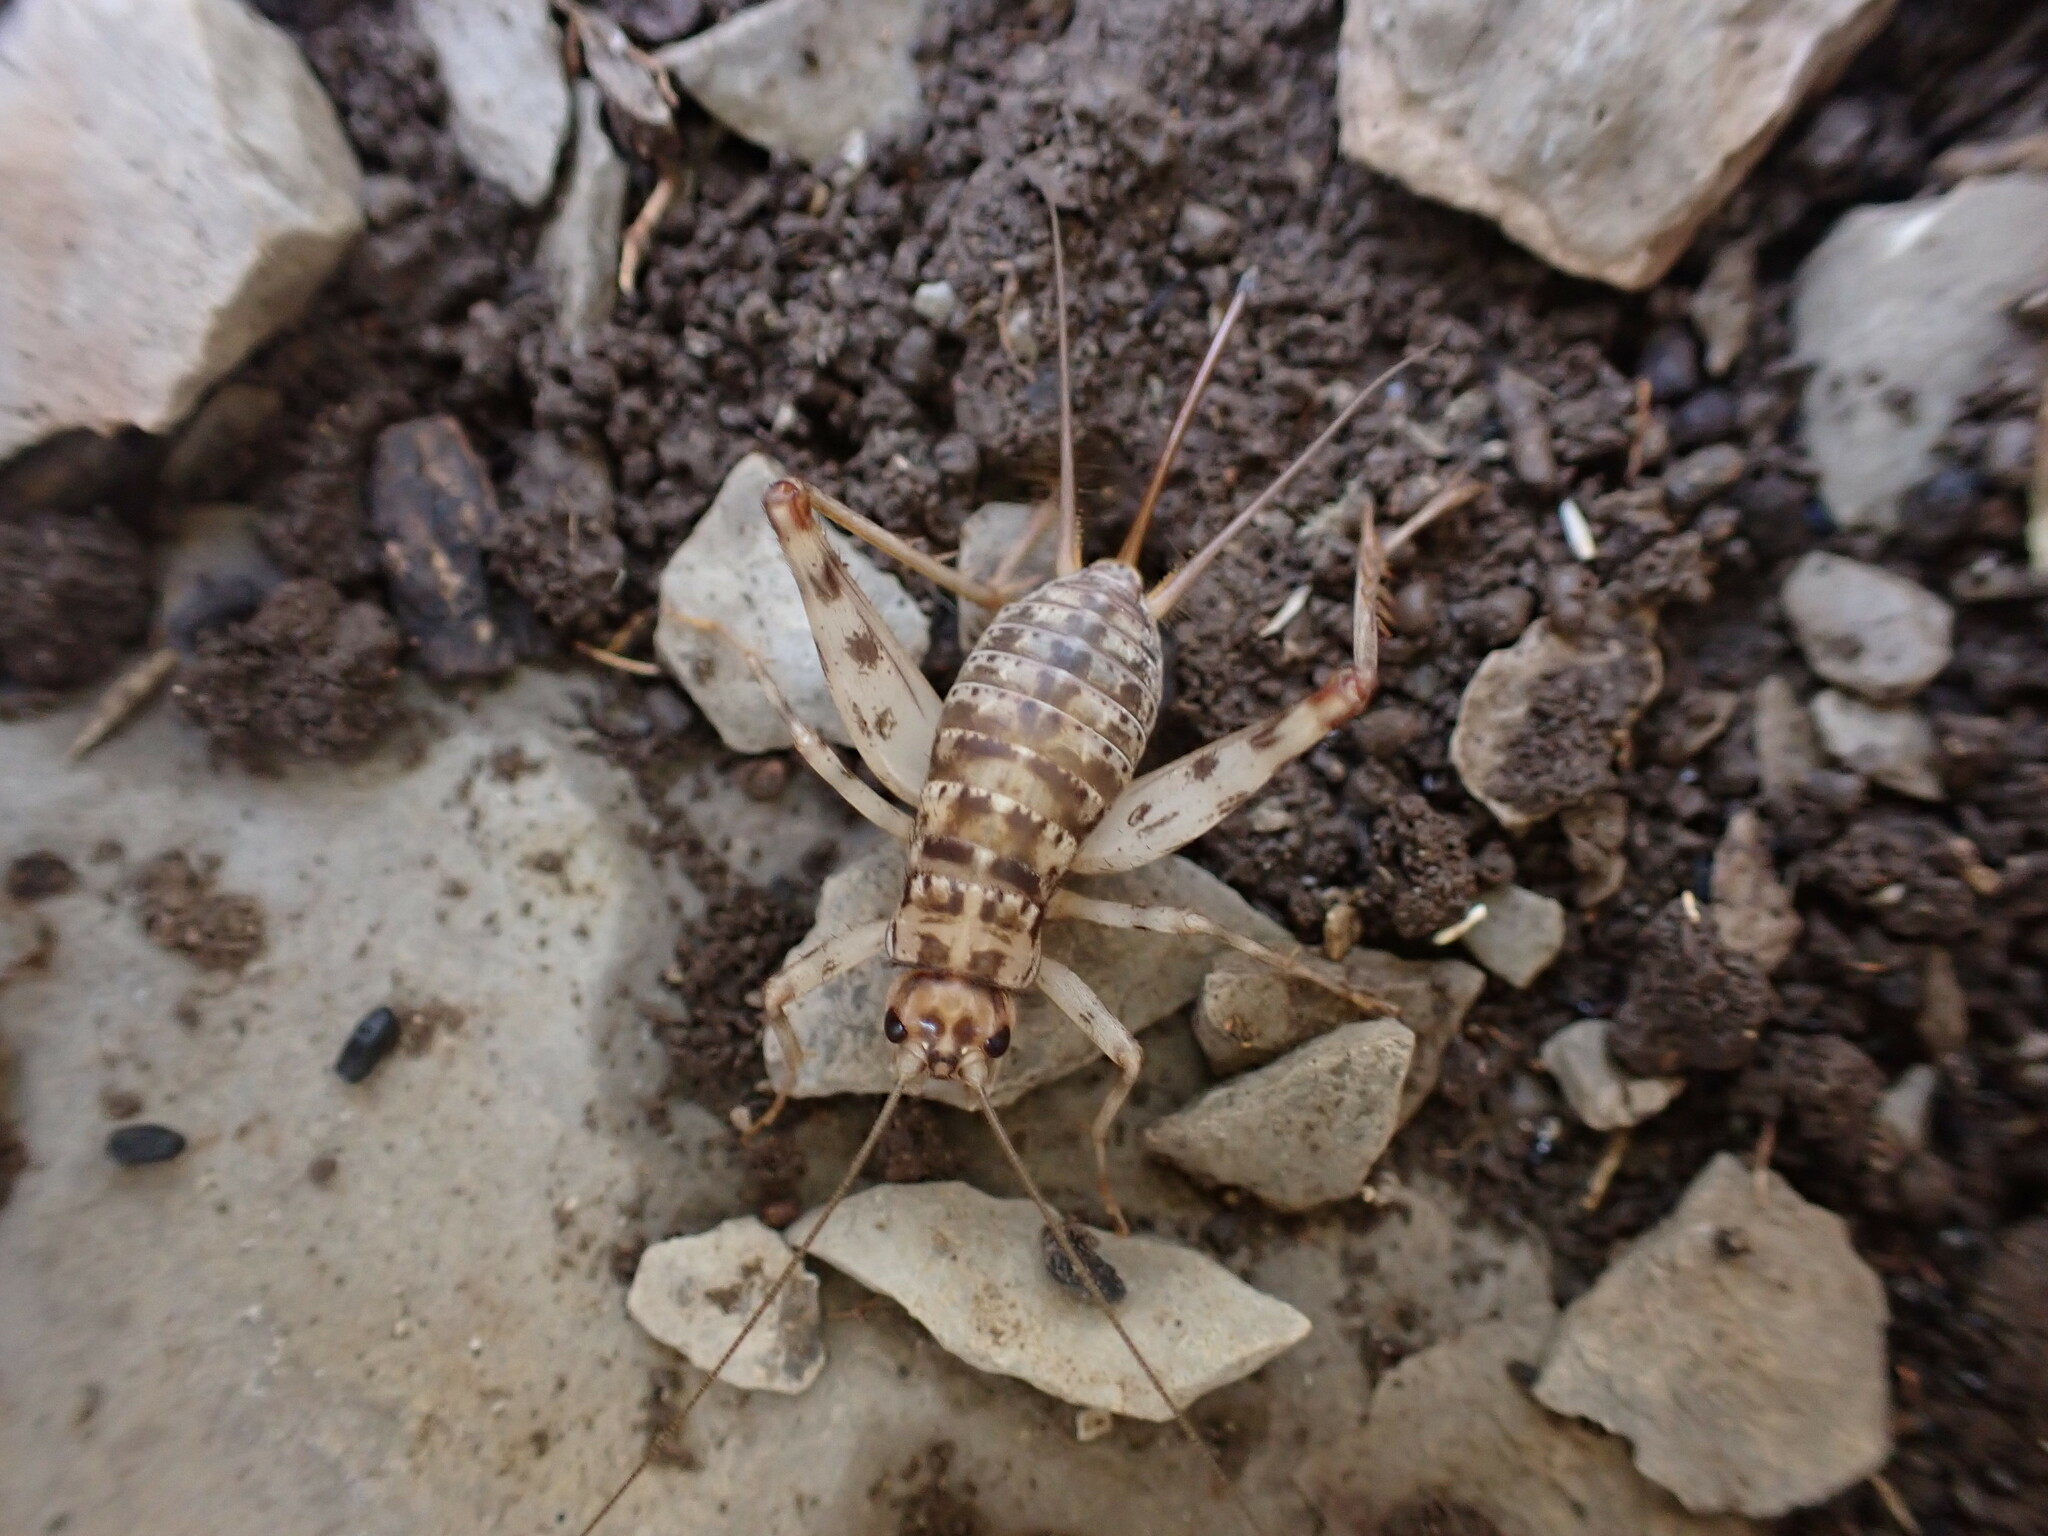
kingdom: Animalia
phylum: Arthropoda
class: Insecta
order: Orthoptera
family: Gryllidae
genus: Gryllomorpha
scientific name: Gryllomorpha dalmatina
